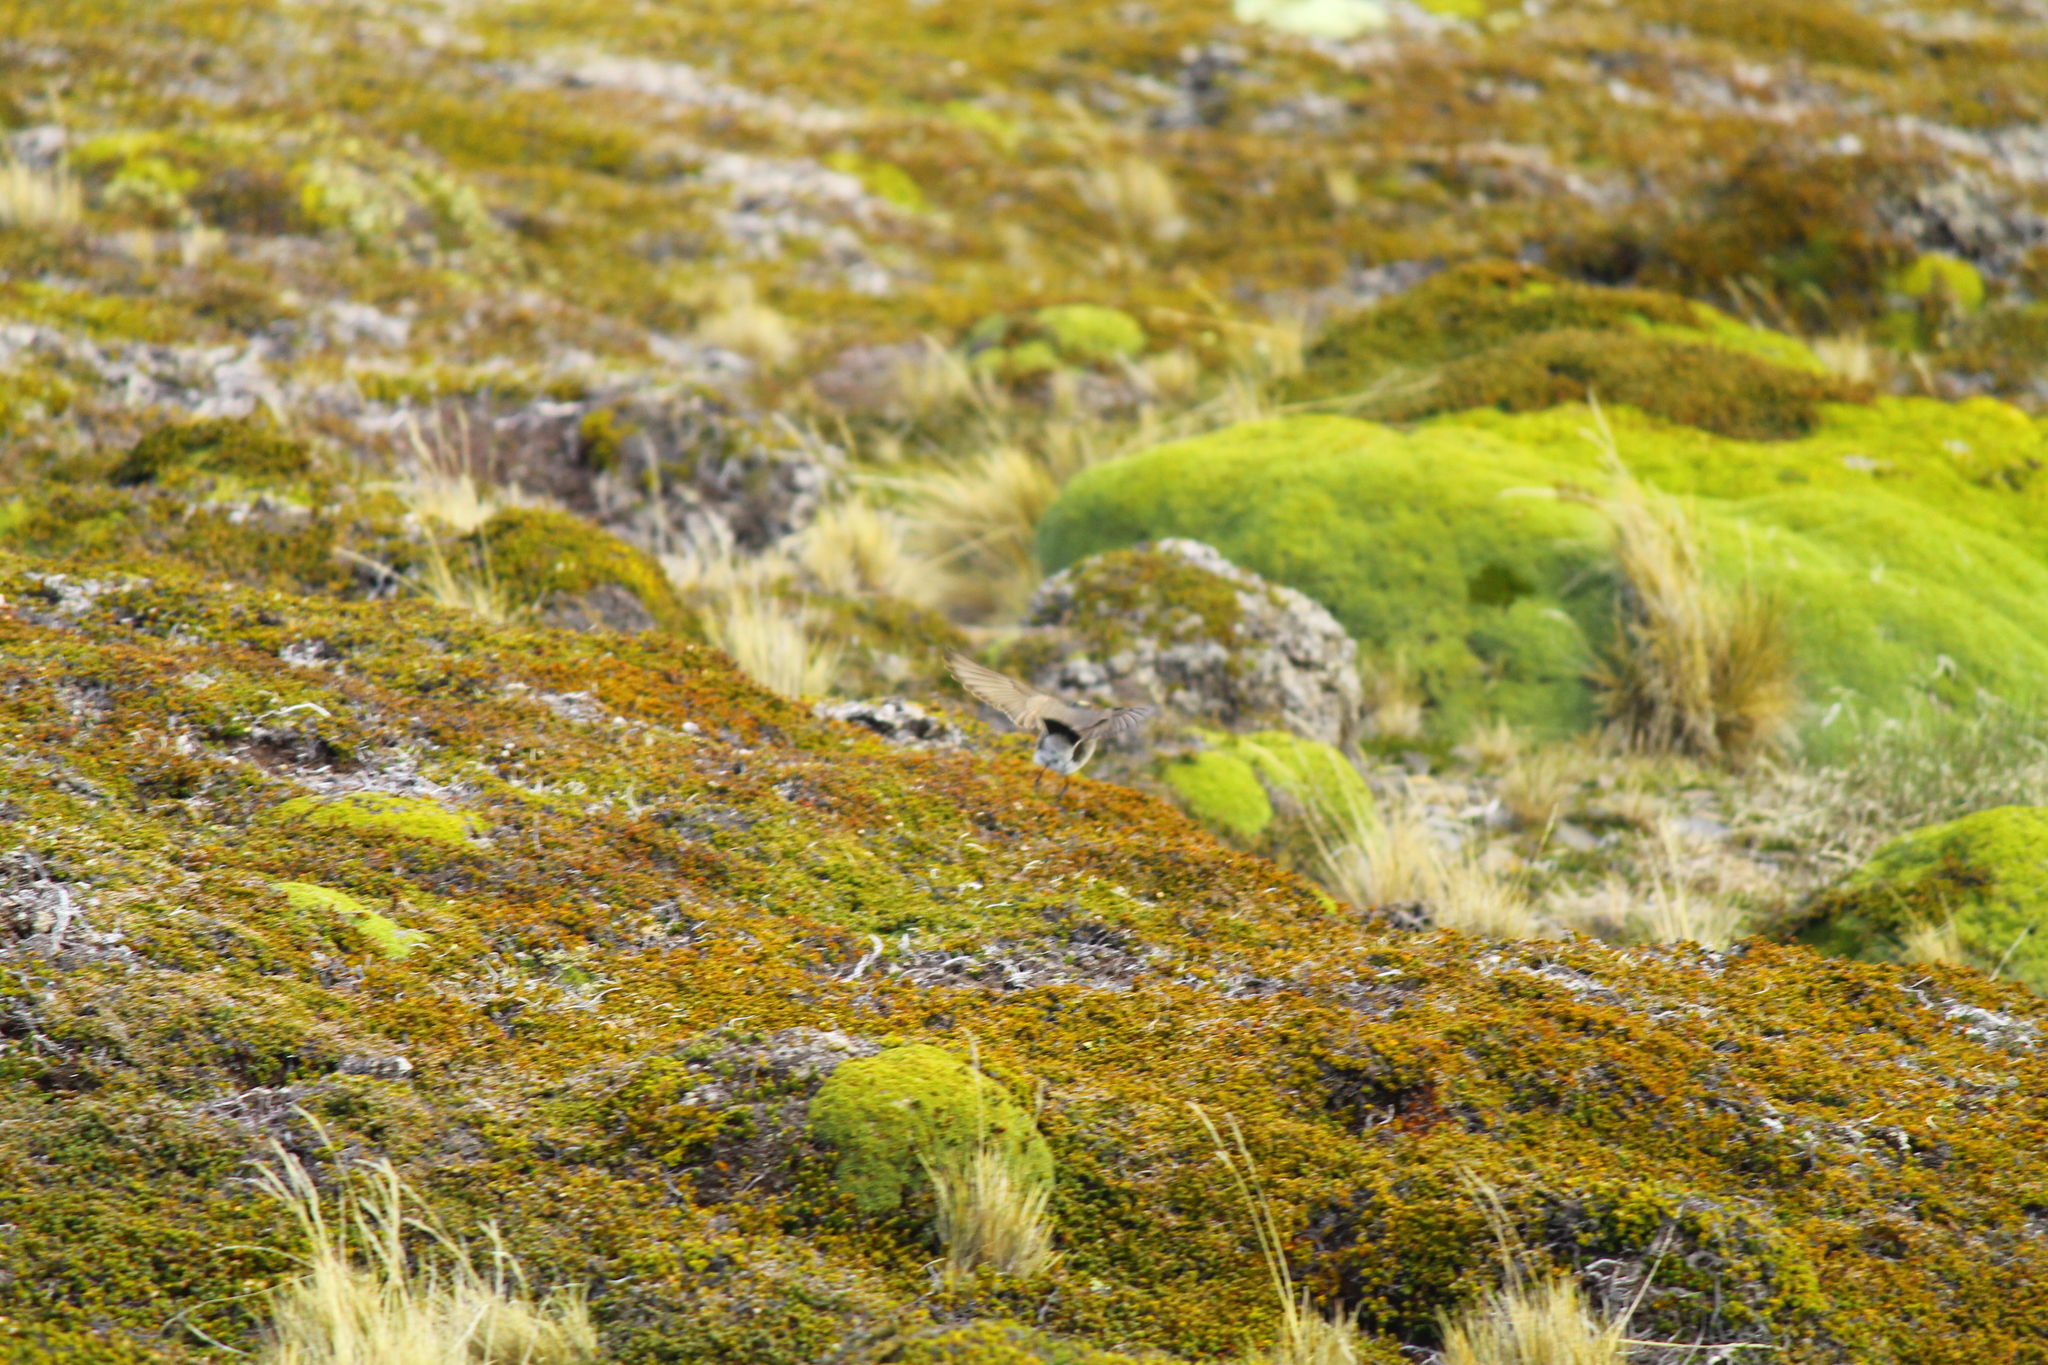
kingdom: Animalia
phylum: Chordata
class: Aves
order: Passeriformes
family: Tyrannidae
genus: Muscisaxicola
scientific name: Muscisaxicola flavinucha
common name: Ochre-naped ground tyrant
